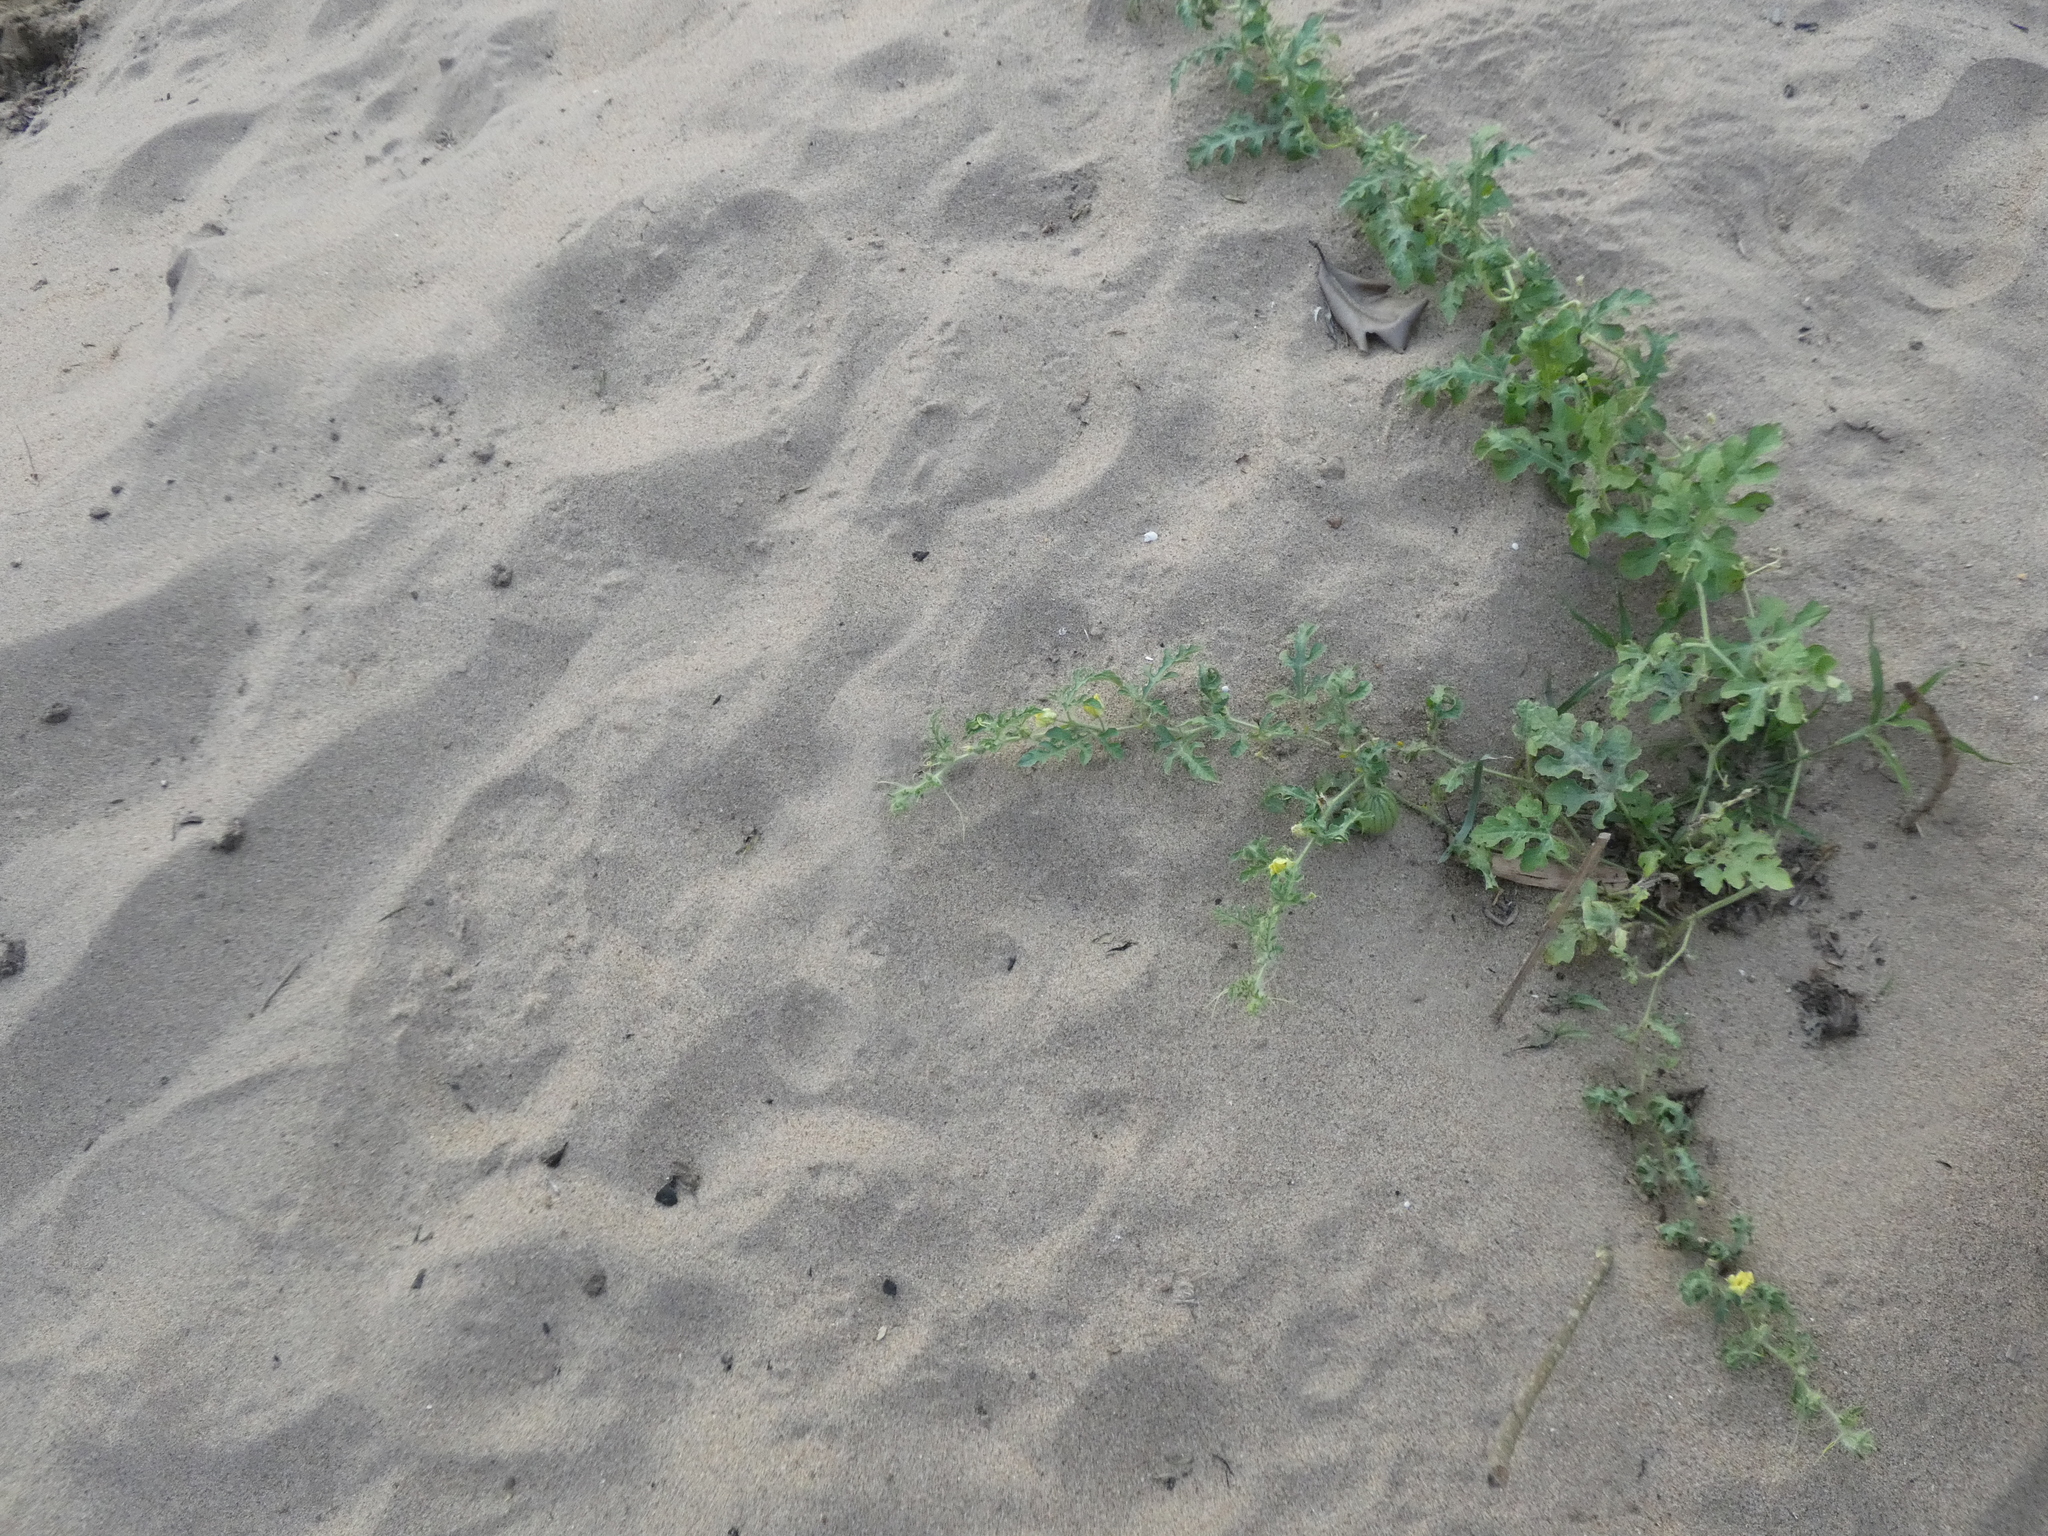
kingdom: Plantae
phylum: Tracheophyta
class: Magnoliopsida
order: Cucurbitales
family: Cucurbitaceae
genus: Citrullus
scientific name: Citrullus lanatus
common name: Watermelon
